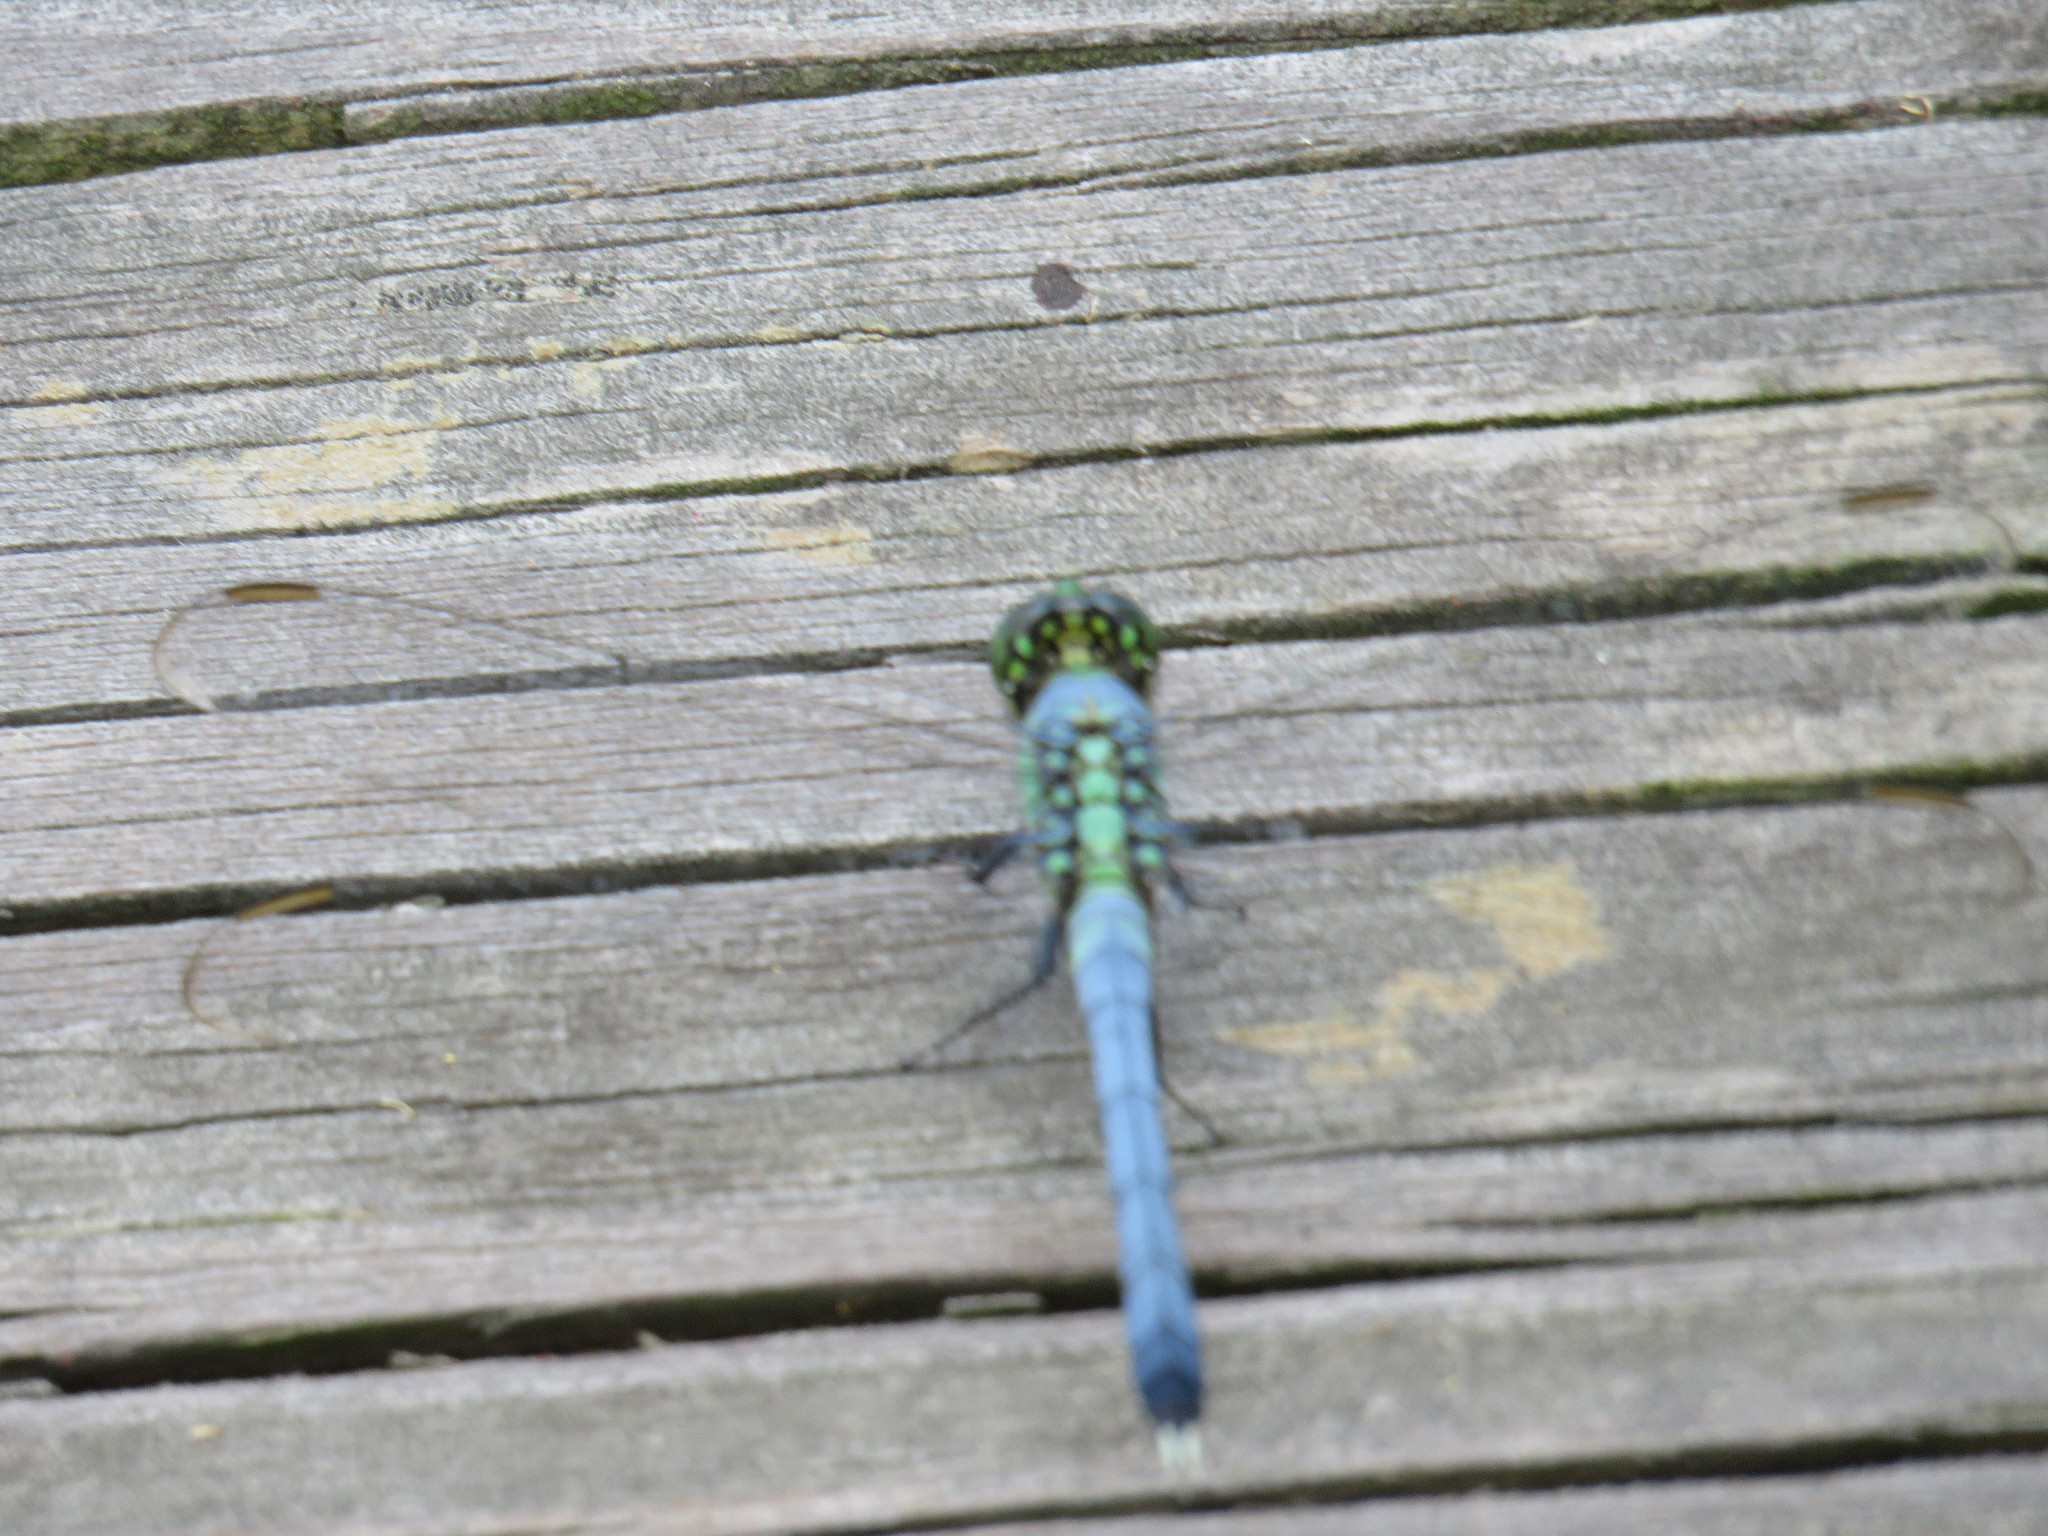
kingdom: Animalia
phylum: Arthropoda
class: Insecta
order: Odonata
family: Libellulidae
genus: Erythemis
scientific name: Erythemis simplicicollis
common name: Eastern pondhawk
